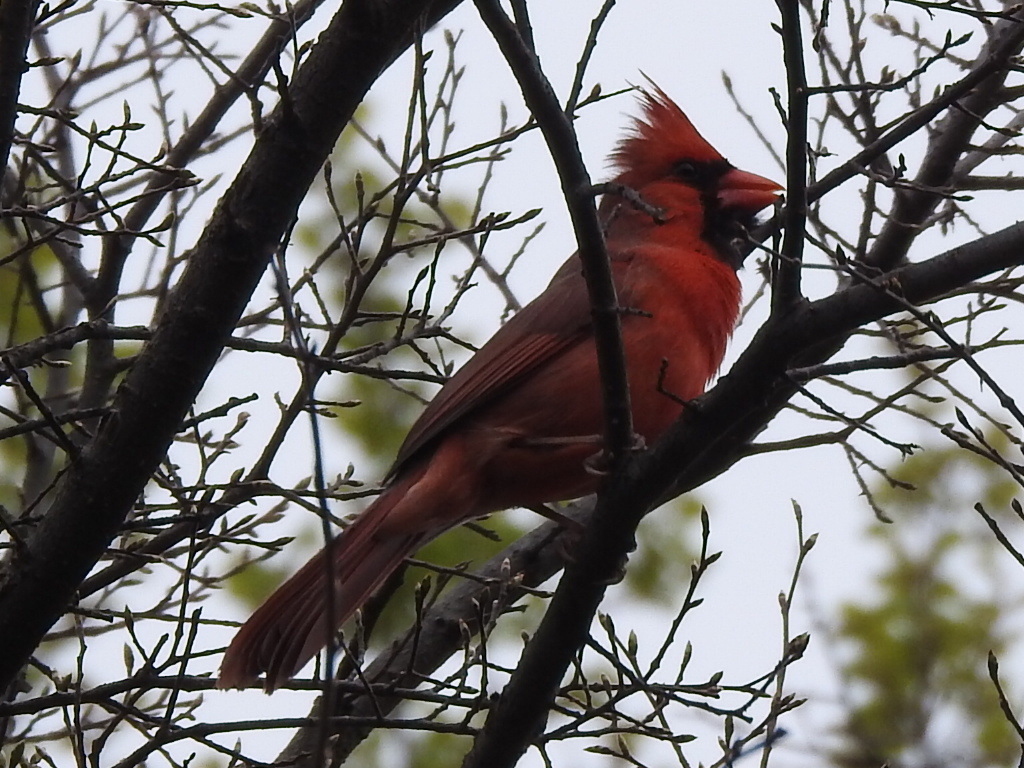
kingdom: Animalia
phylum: Chordata
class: Aves
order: Passeriformes
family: Cardinalidae
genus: Cardinalis
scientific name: Cardinalis cardinalis
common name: Northern cardinal
